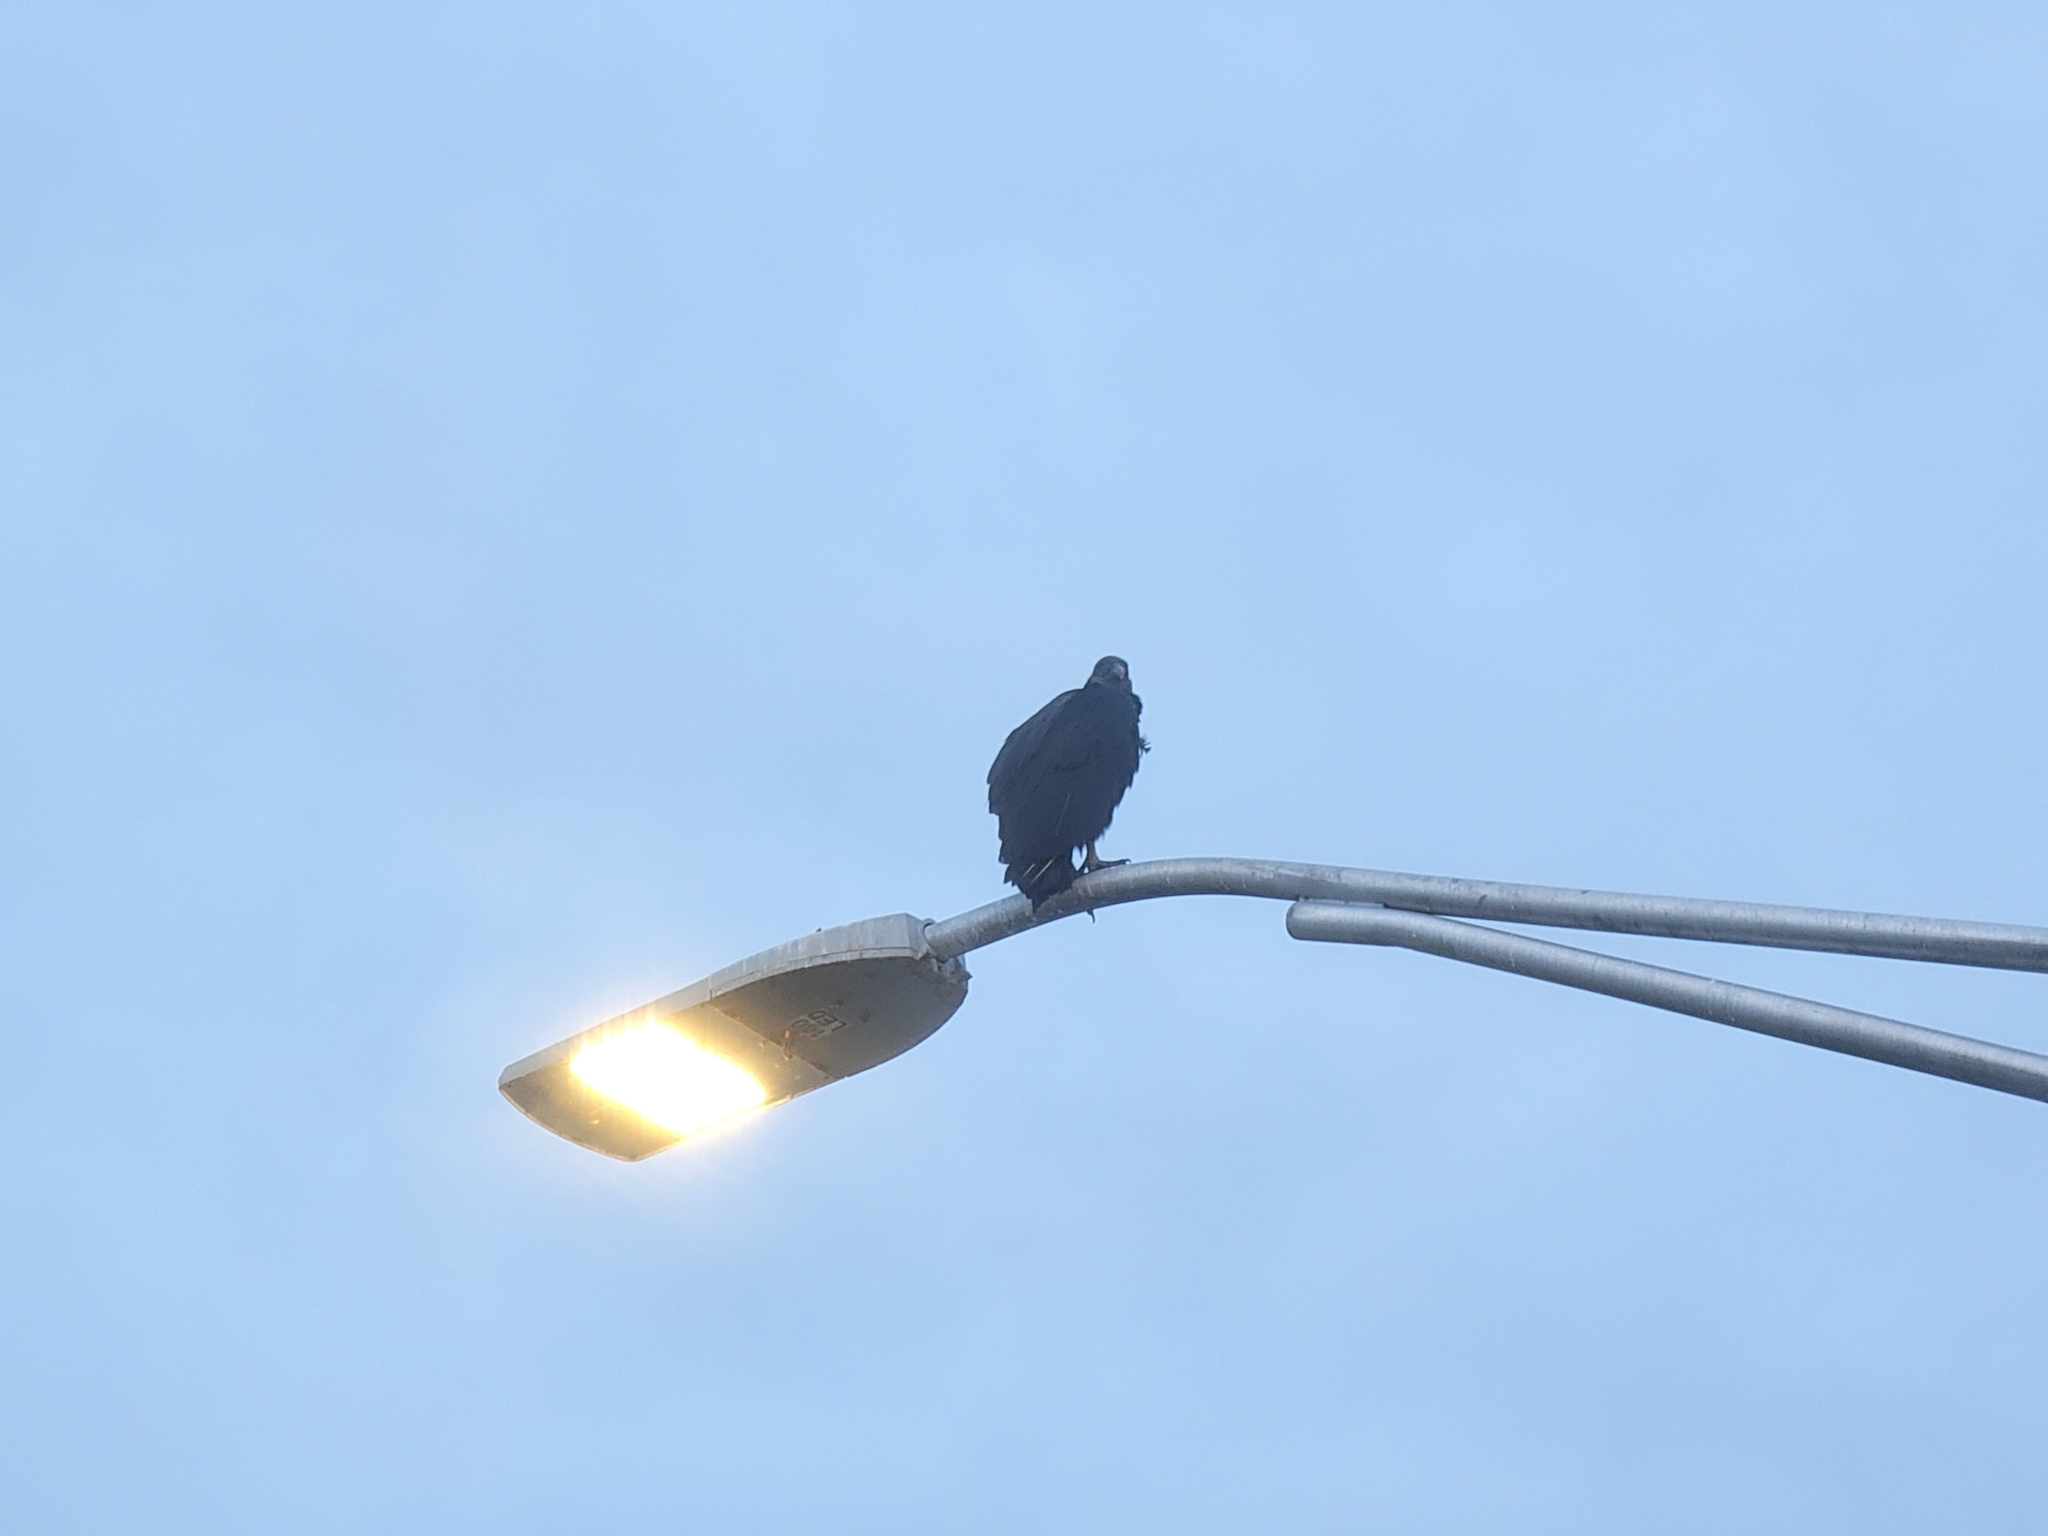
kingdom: Animalia
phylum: Chordata
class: Aves
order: Accipitriformes
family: Cathartidae
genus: Coragyps
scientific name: Coragyps atratus
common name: Black vulture
